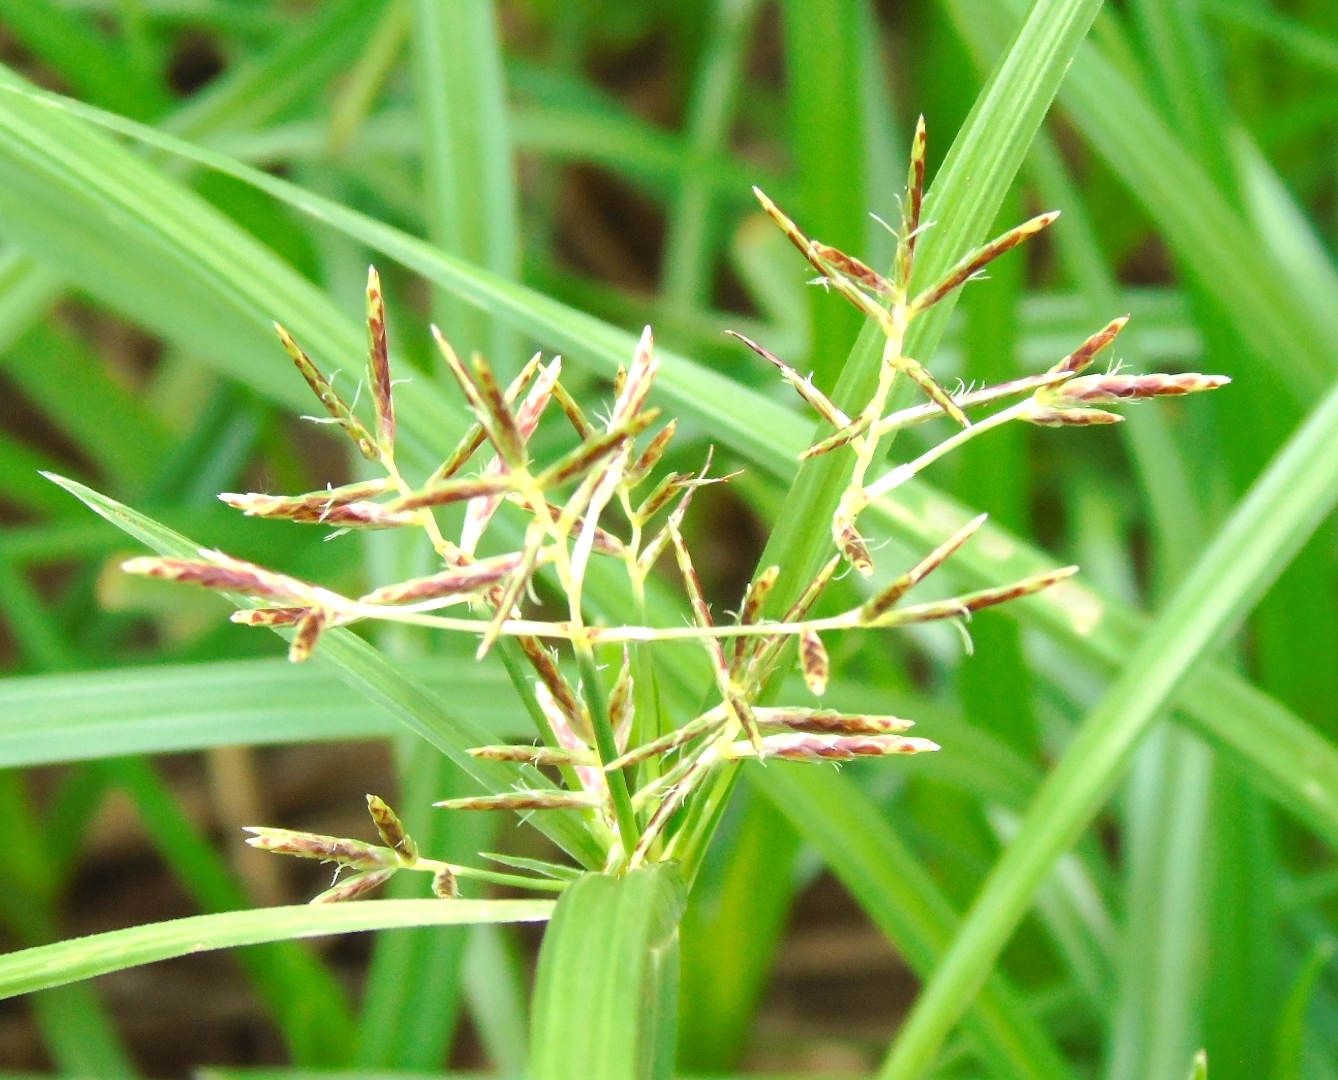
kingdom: Plantae
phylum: Tracheophyta
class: Liliopsida
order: Poales
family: Cyperaceae
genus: Cyperus
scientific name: Cyperus rotundus
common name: Nutgrass
